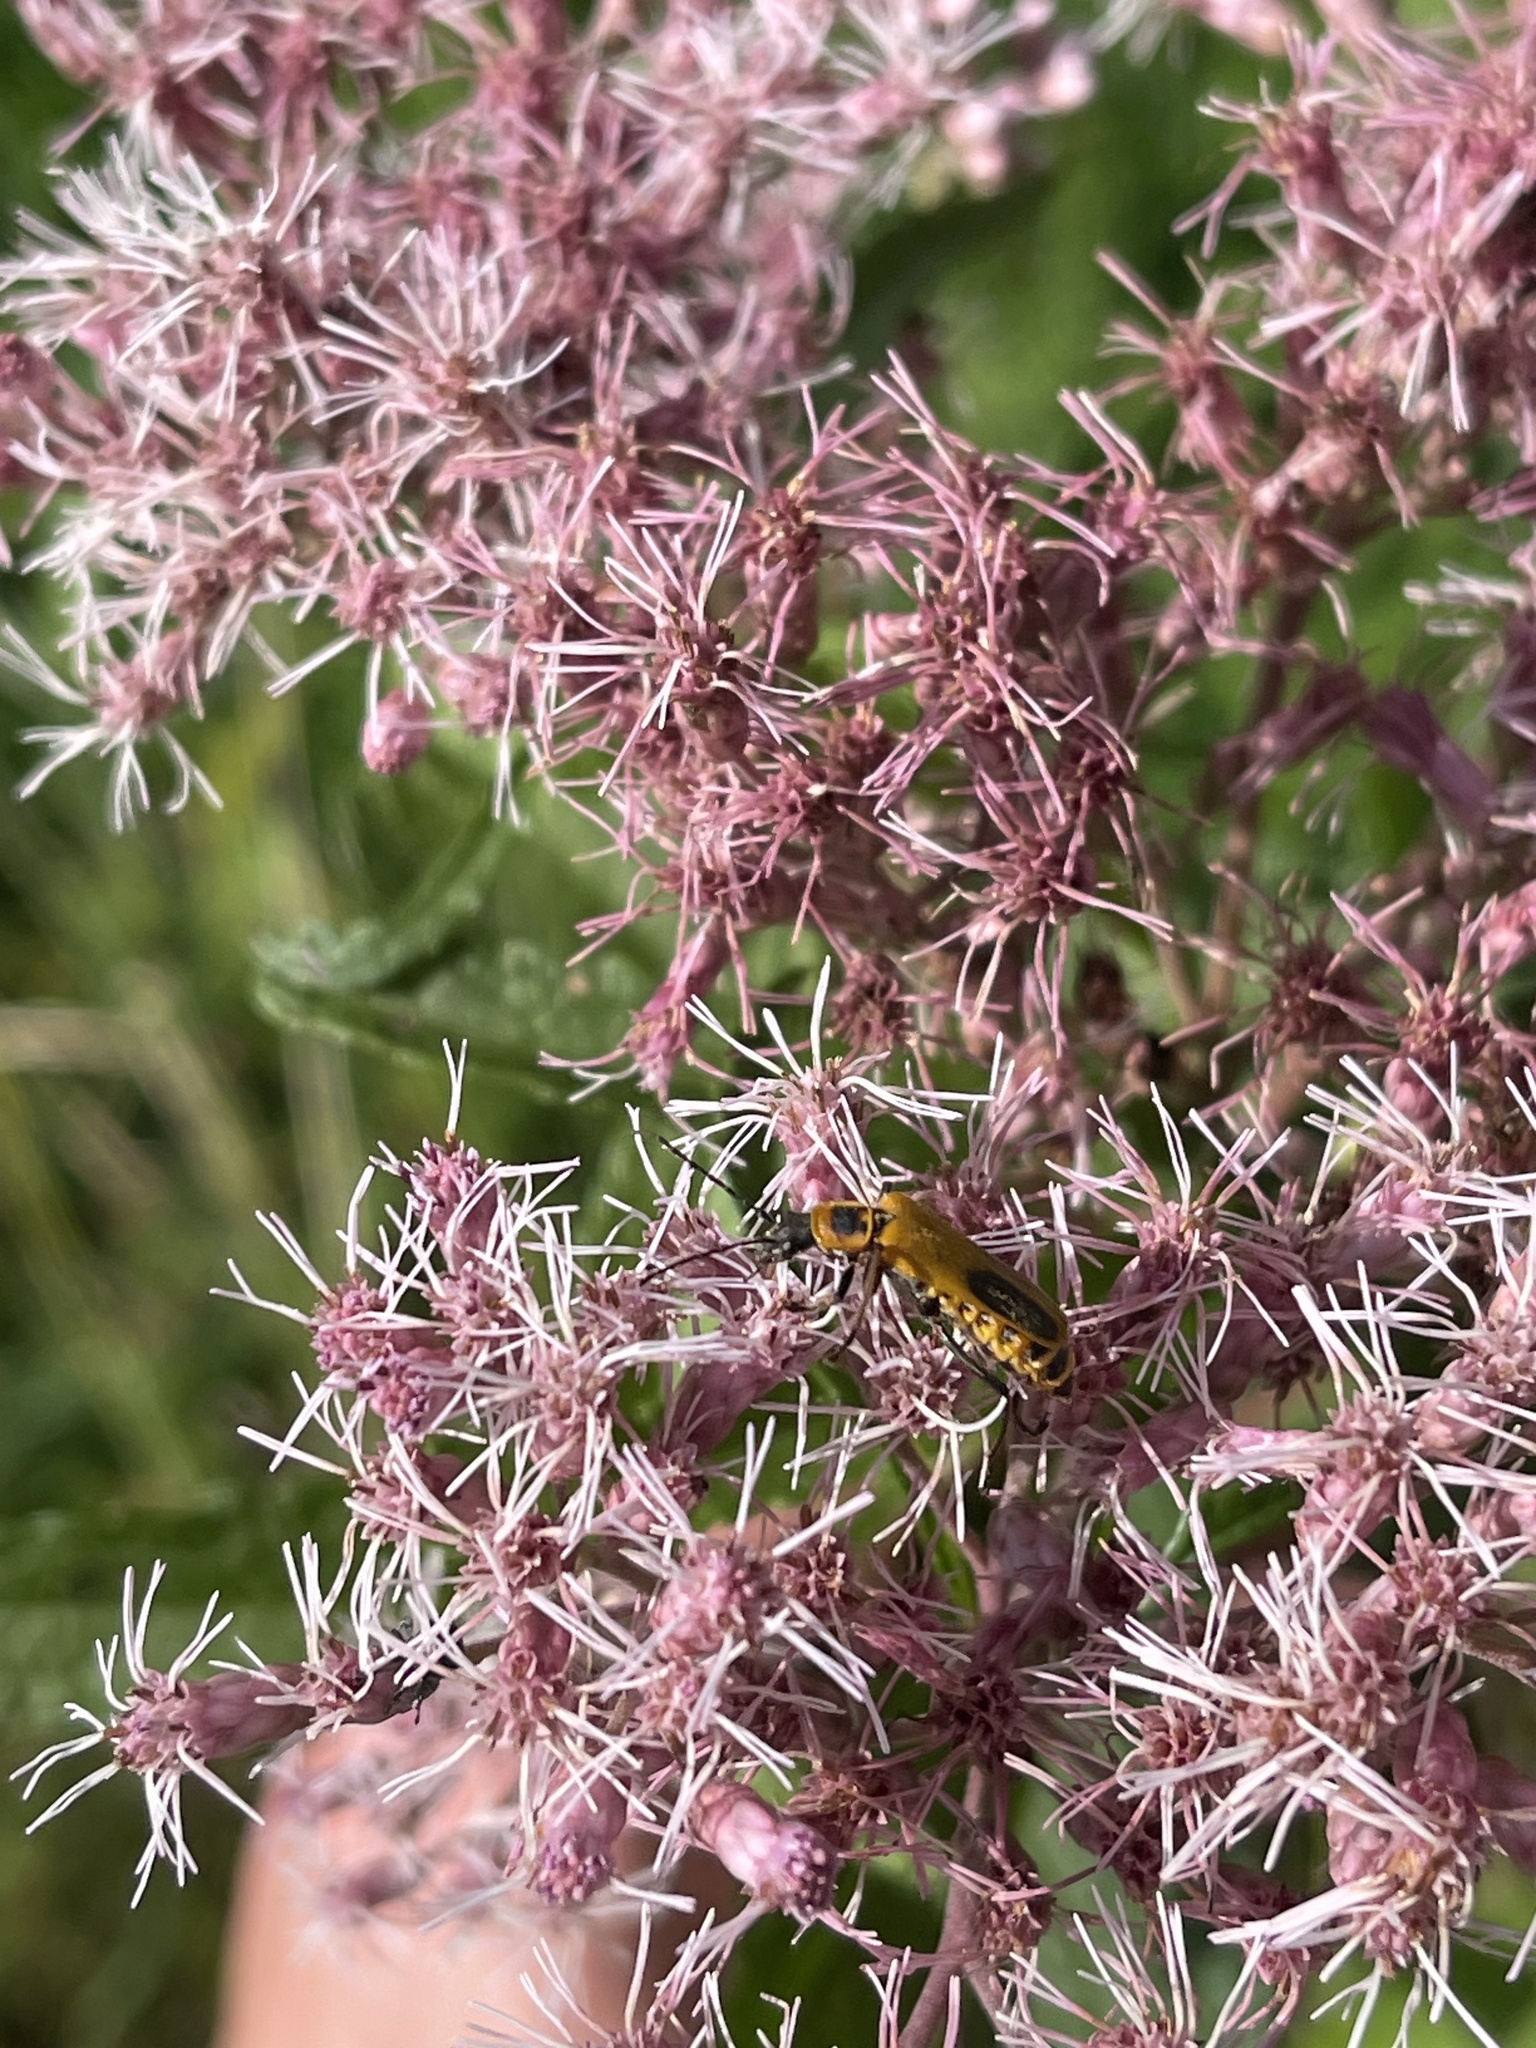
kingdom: Animalia
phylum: Arthropoda
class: Insecta
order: Coleoptera
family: Cantharidae
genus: Chauliognathus
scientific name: Chauliognathus pensylvanicus
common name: Goldenrod soldier beetle
